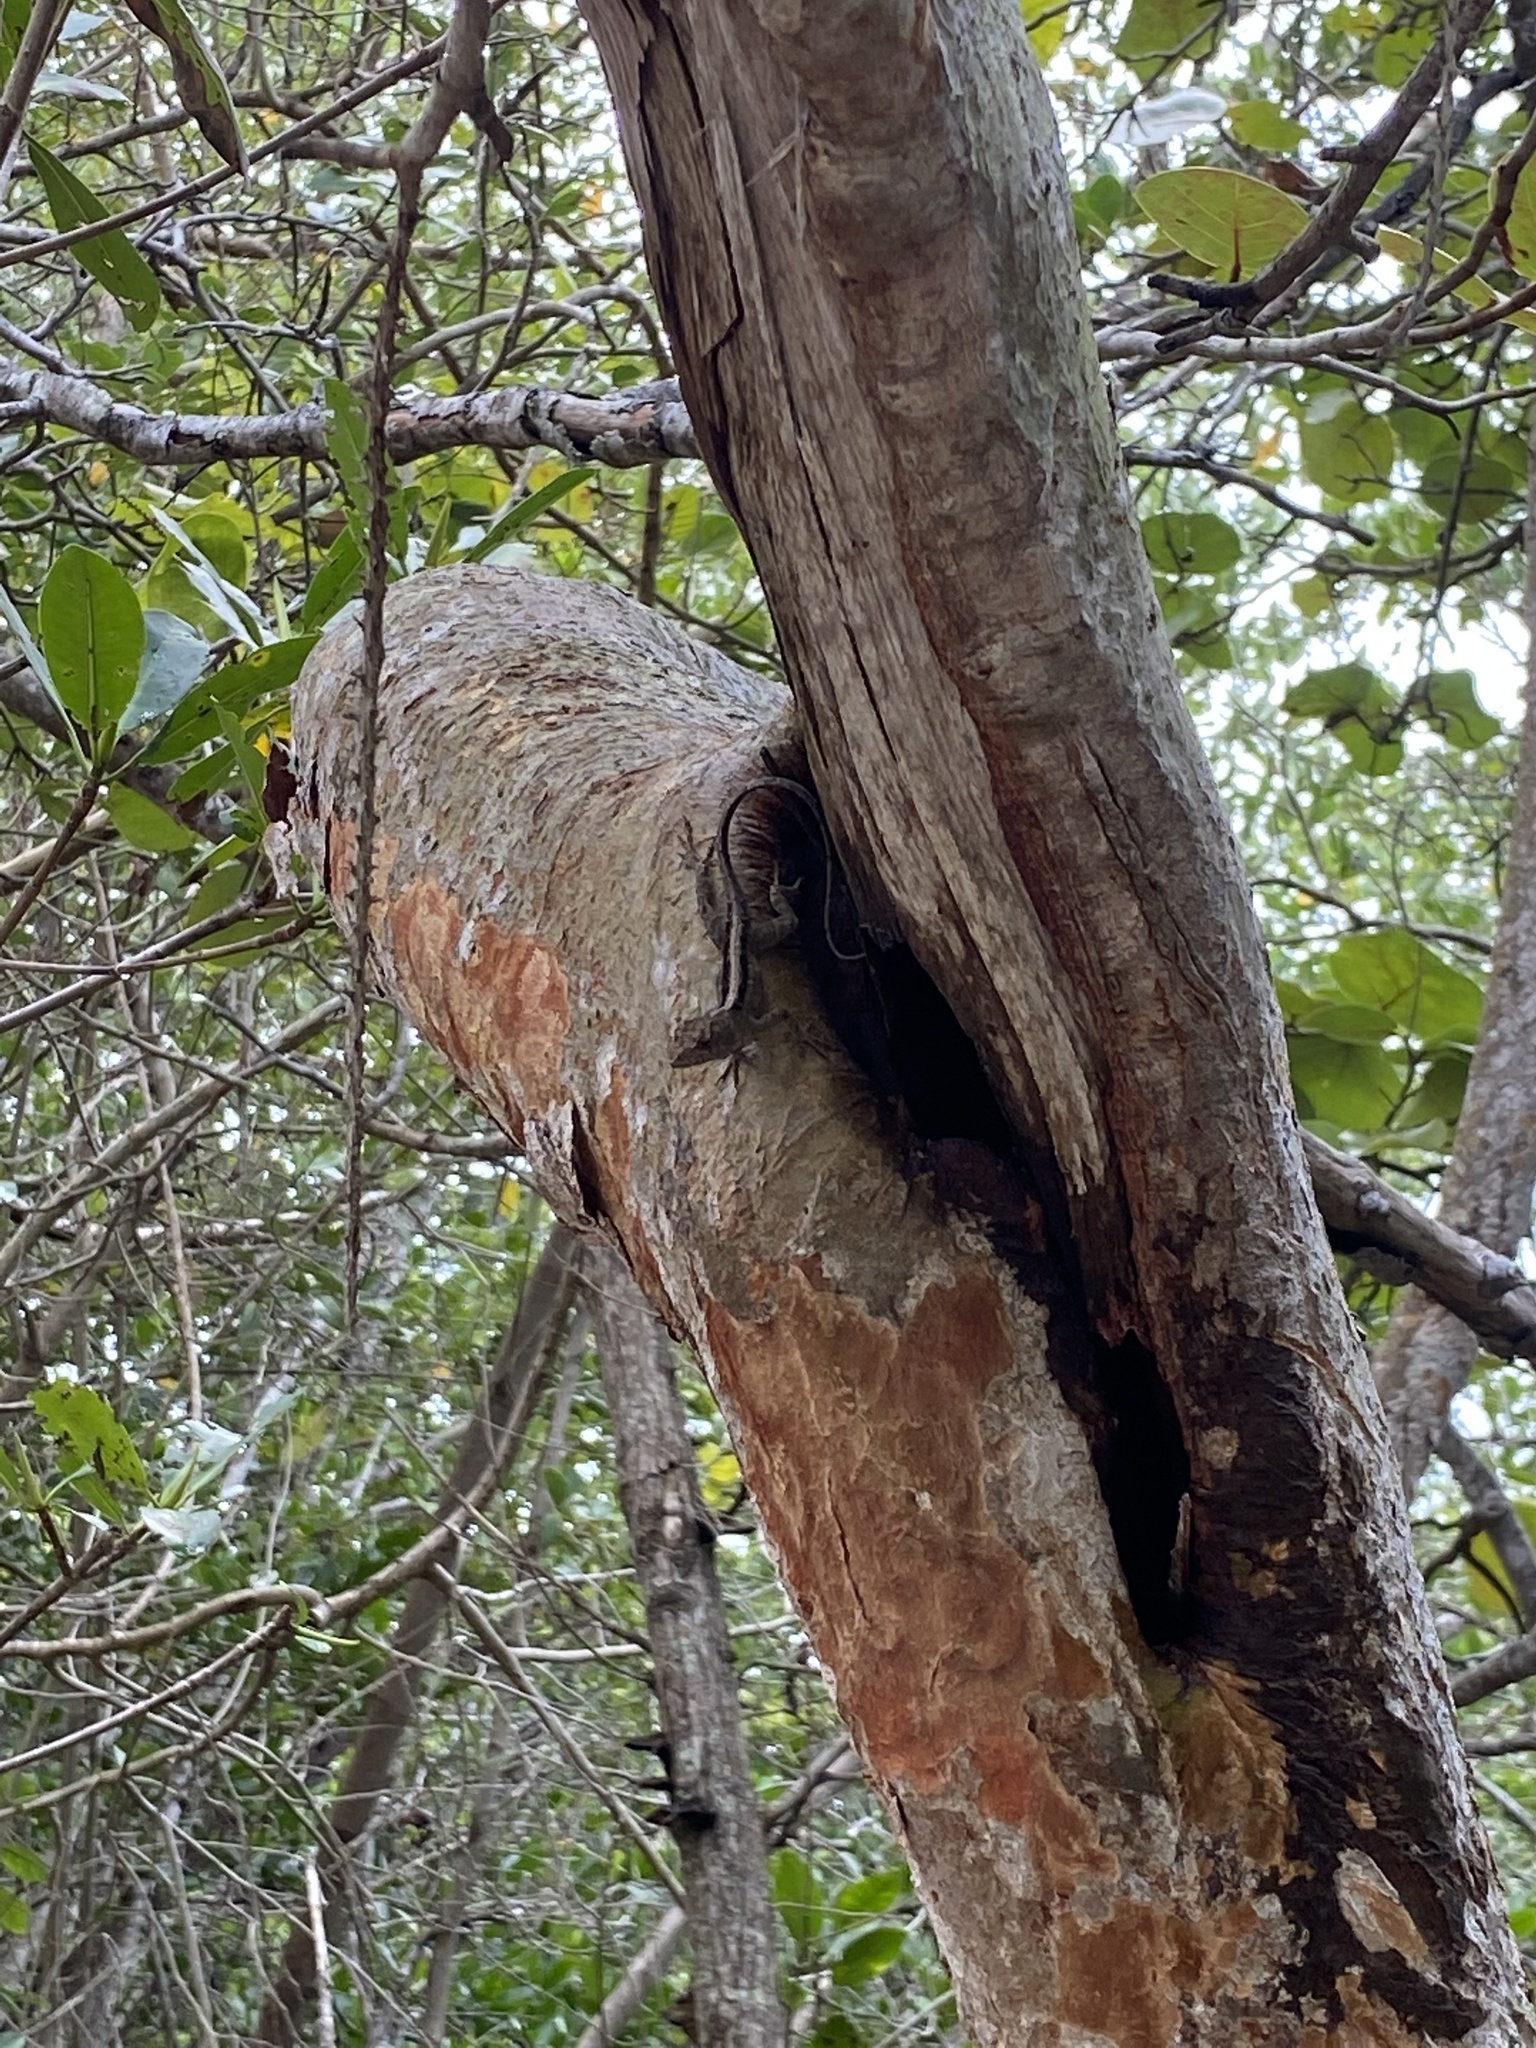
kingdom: Animalia
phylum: Chordata
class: Squamata
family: Dactyloidae
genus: Anolis
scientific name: Anolis sagrei
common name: Brown anole
